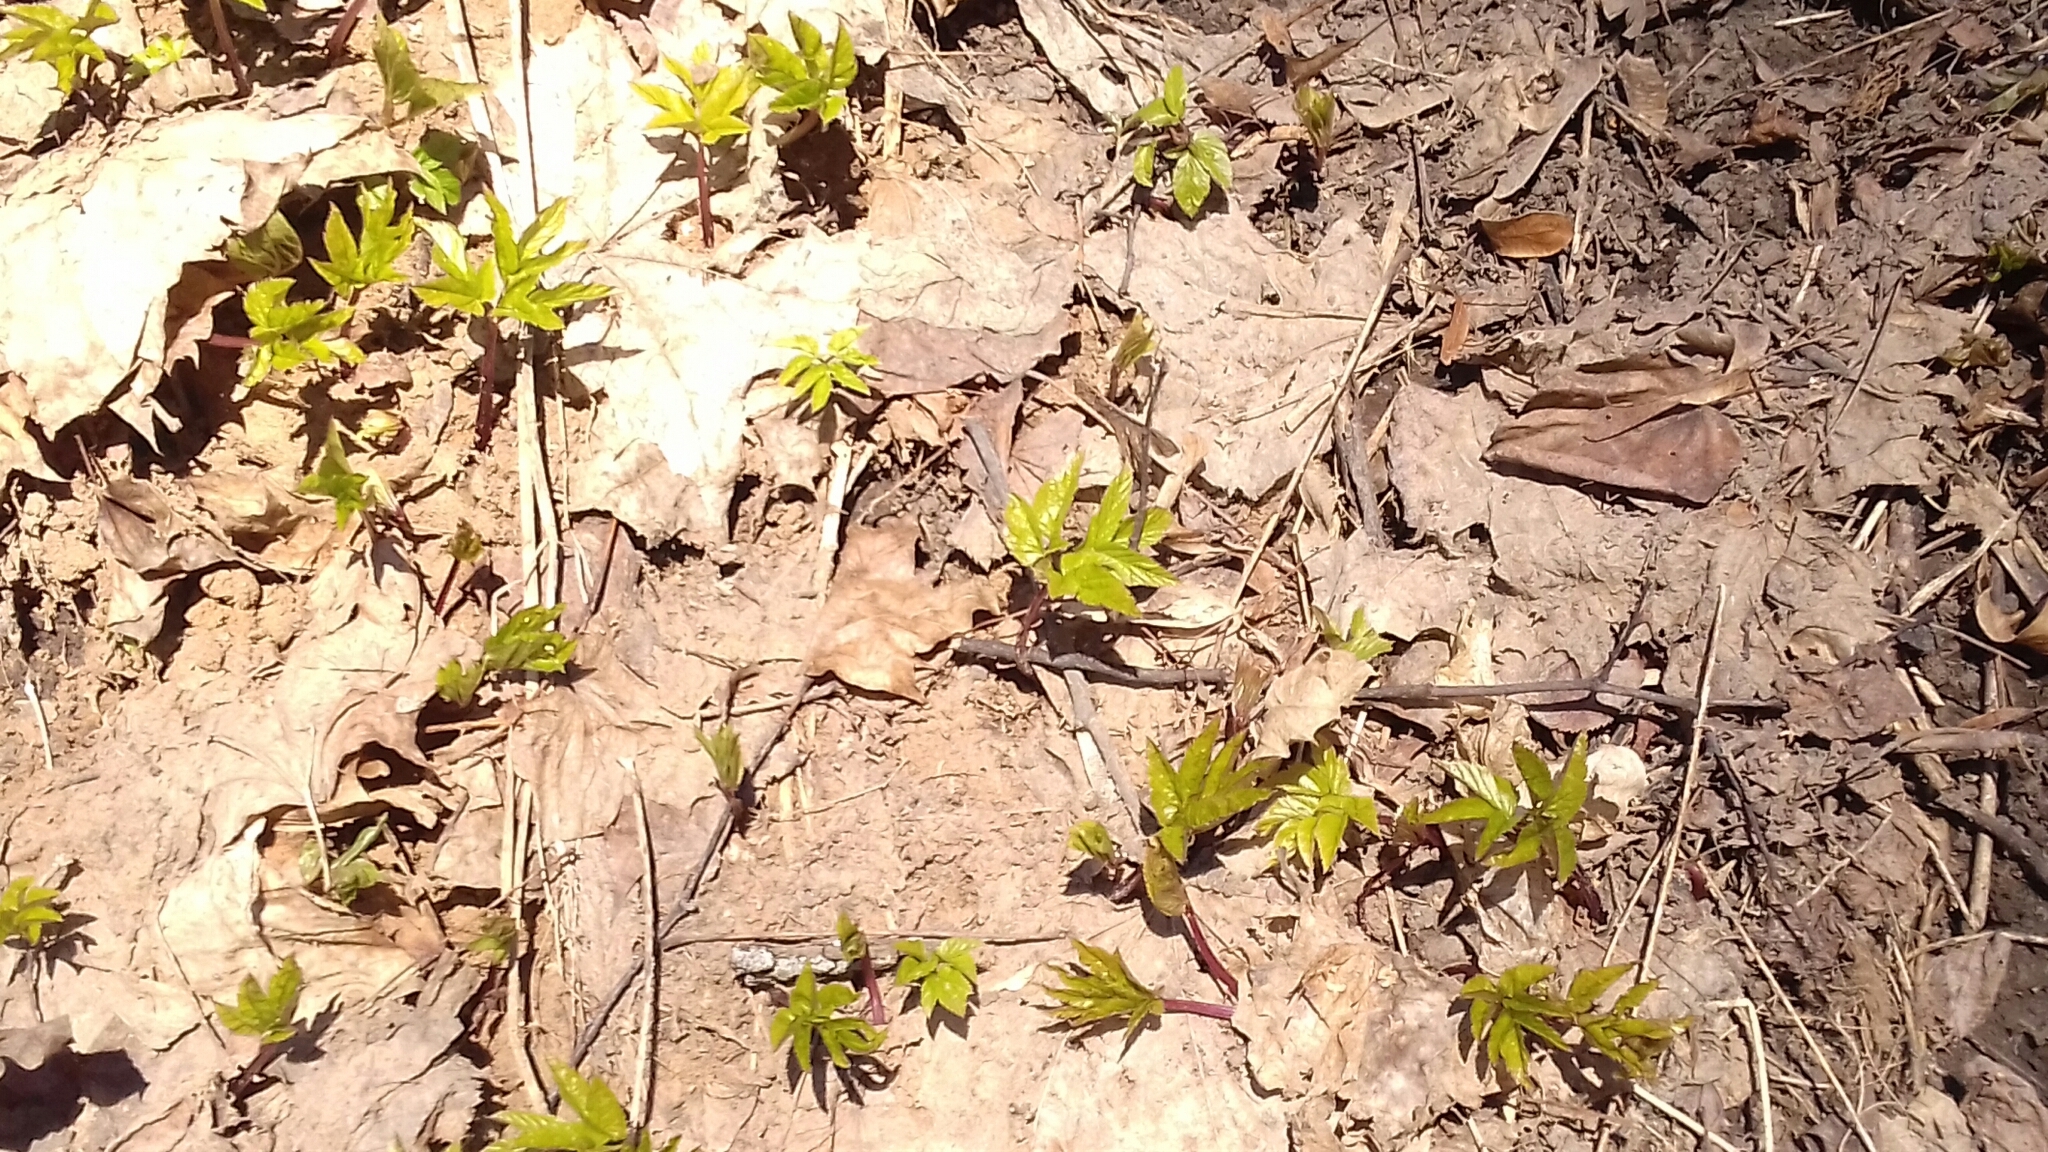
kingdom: Plantae
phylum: Tracheophyta
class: Magnoliopsida
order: Apiales
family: Apiaceae
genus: Aegopodium
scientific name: Aegopodium podagraria
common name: Ground-elder
